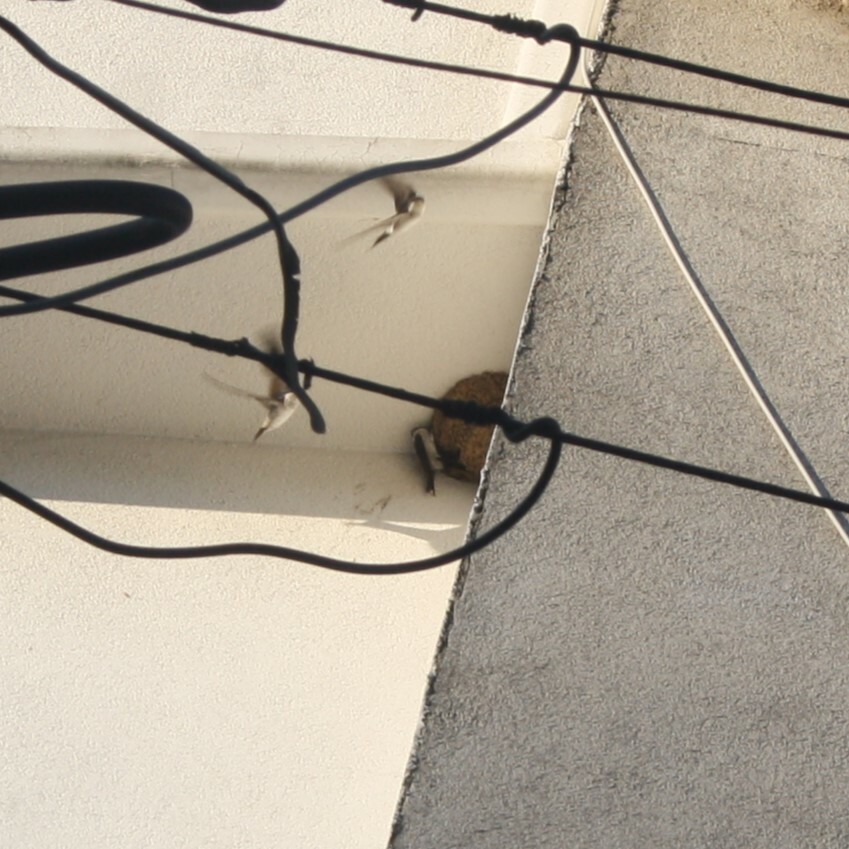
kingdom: Animalia
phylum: Chordata
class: Aves
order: Passeriformes
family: Hirundinidae
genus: Delichon
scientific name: Delichon urbicum
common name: Common house martin
